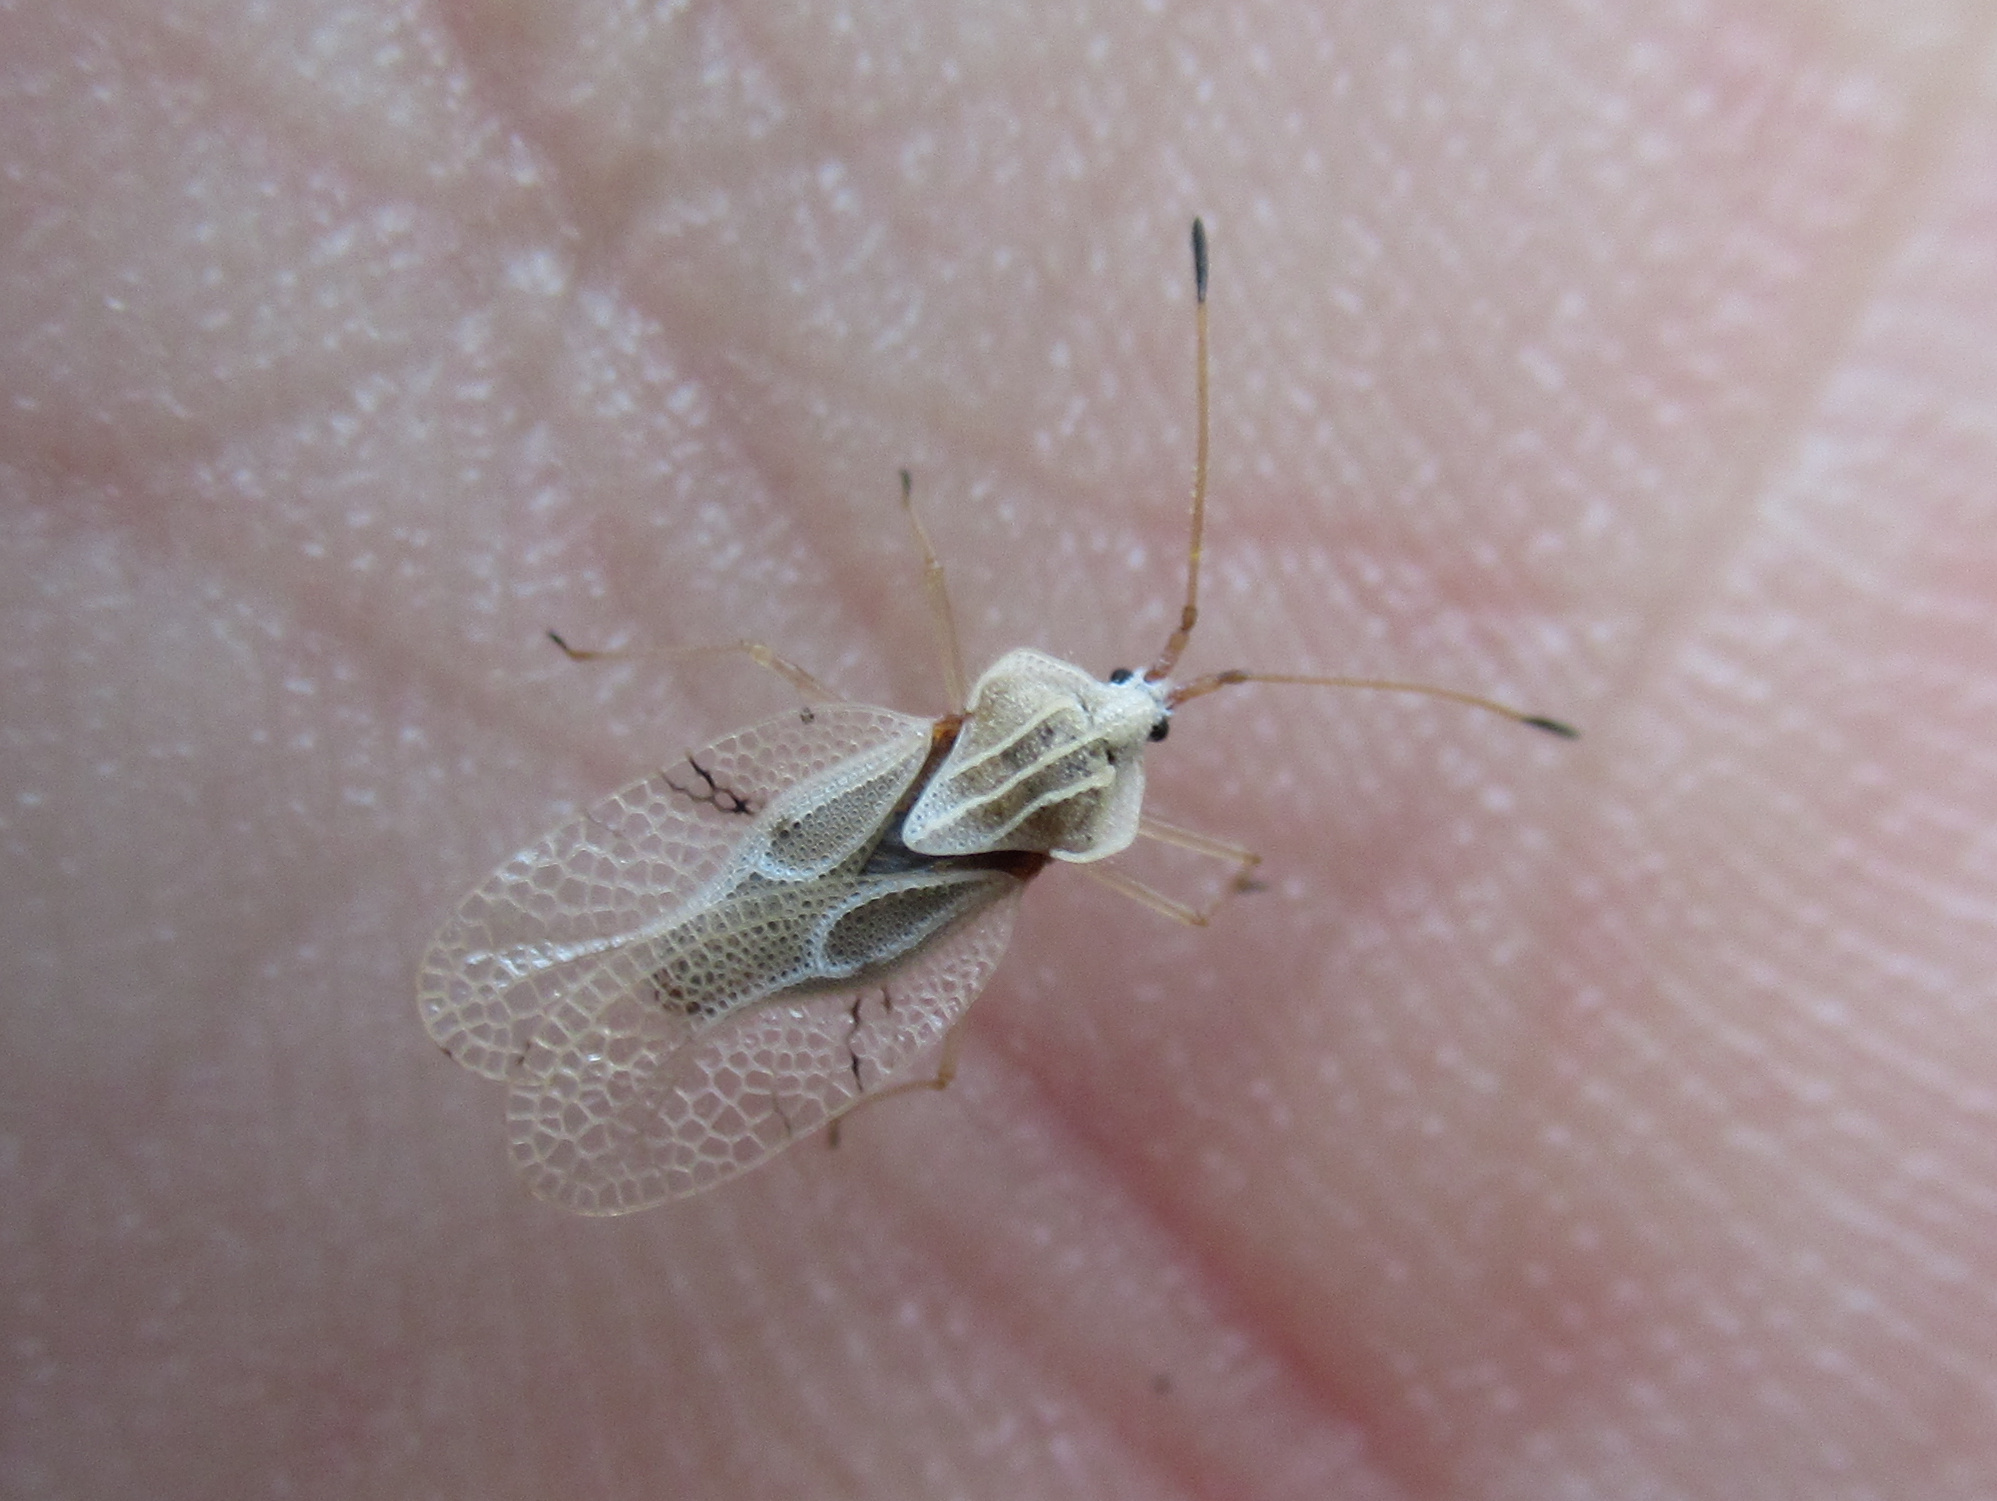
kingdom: Animalia
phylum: Arthropoda
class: Insecta
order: Hemiptera
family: Tingidae
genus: Gargaphia
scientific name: Gargaphia decoris
